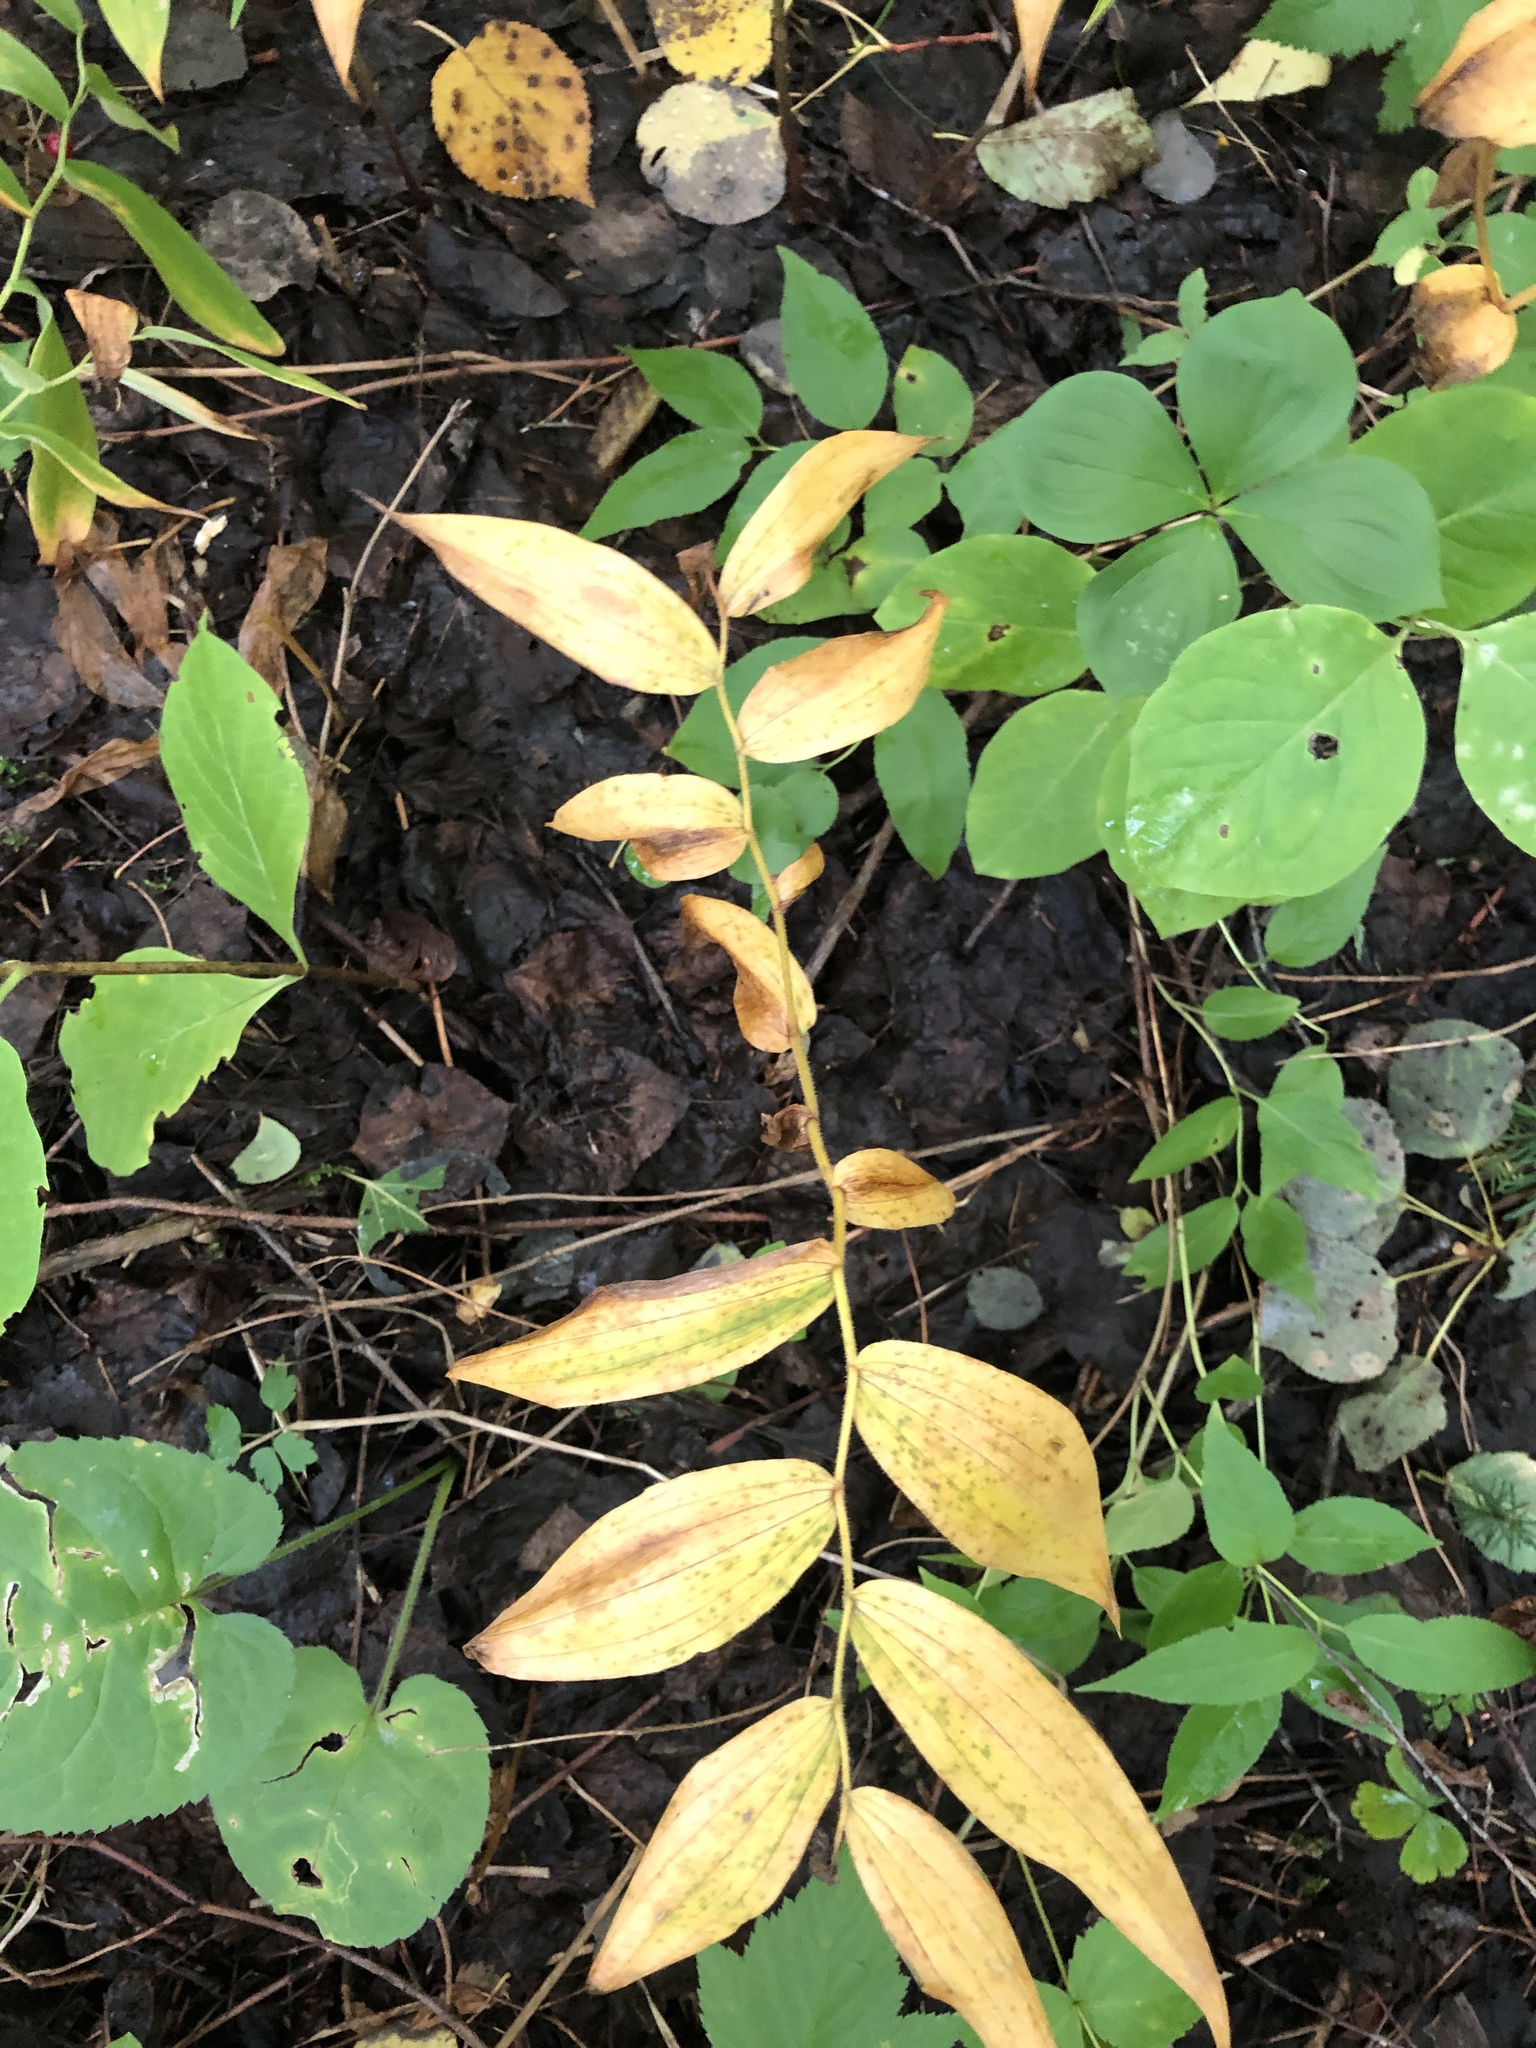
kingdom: Plantae
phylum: Tracheophyta
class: Liliopsida
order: Liliales
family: Liliaceae
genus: Streptopus
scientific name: Streptopus lanceolatus
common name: Rose mandarin
